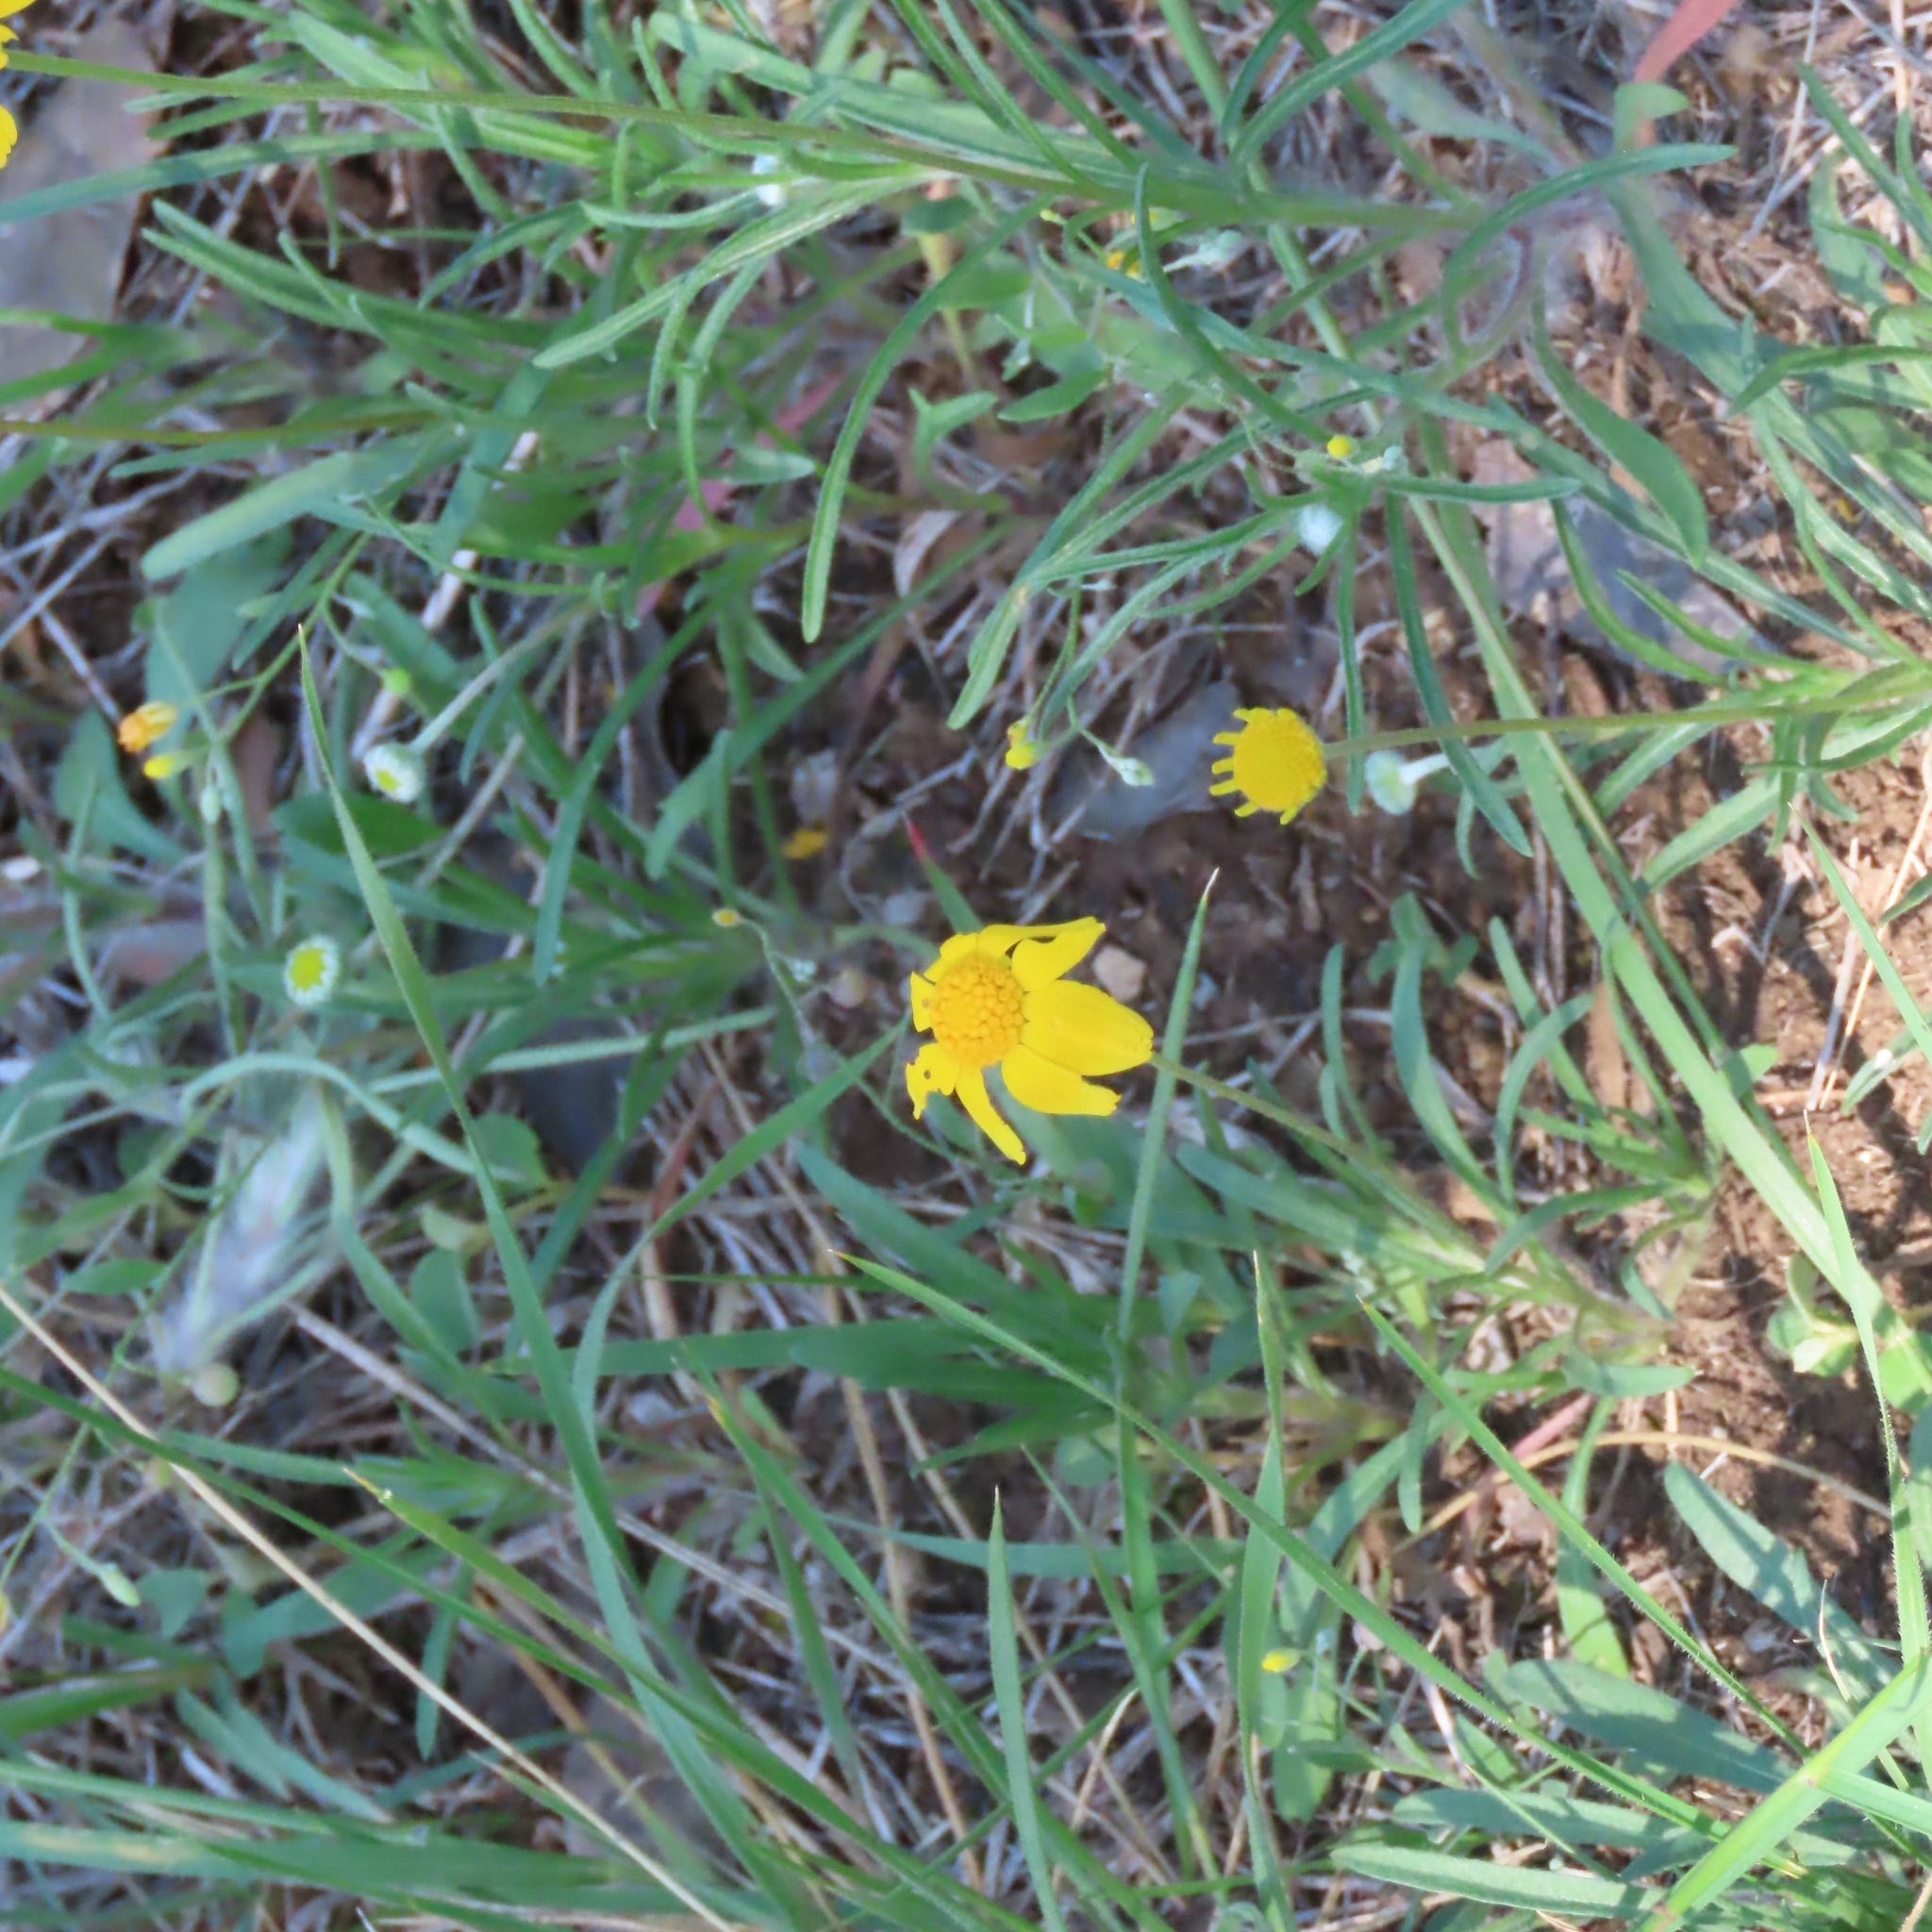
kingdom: Plantae
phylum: Tracheophyta
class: Magnoliopsida
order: Asterales
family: Asteraceae
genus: Tetraneuris
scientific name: Tetraneuris linearifolia
